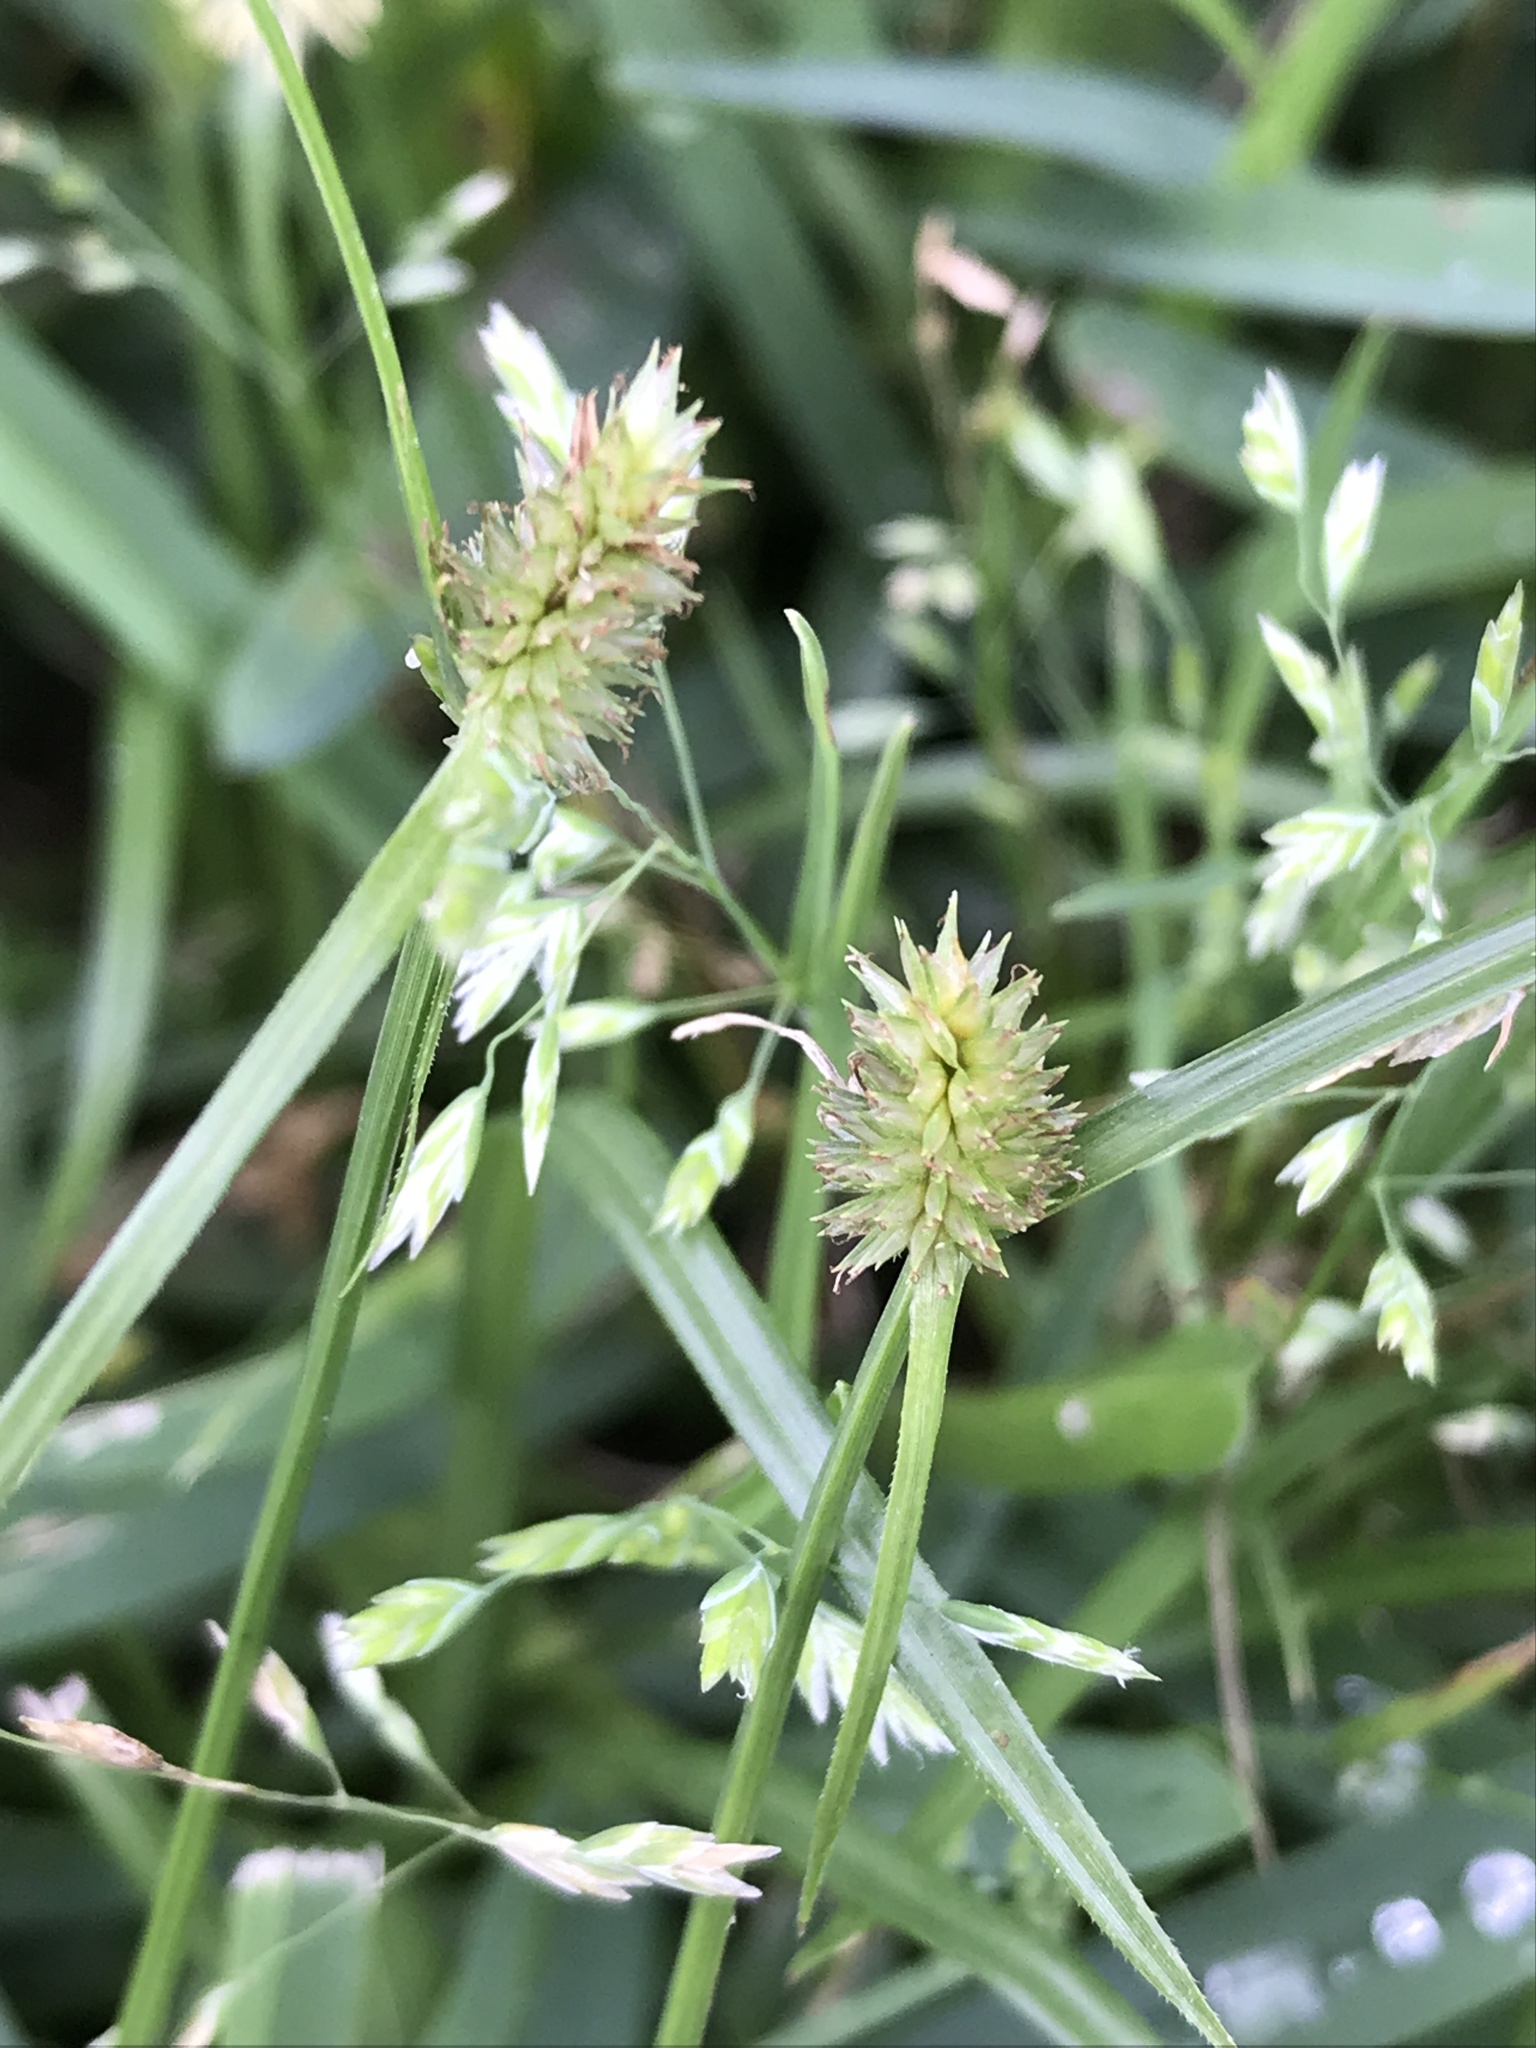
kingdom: Plantae
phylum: Tracheophyta
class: Liliopsida
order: Poales
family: Cyperaceae
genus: Cyperus
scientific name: Cyperus brevifolius
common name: Globe kyllinga
